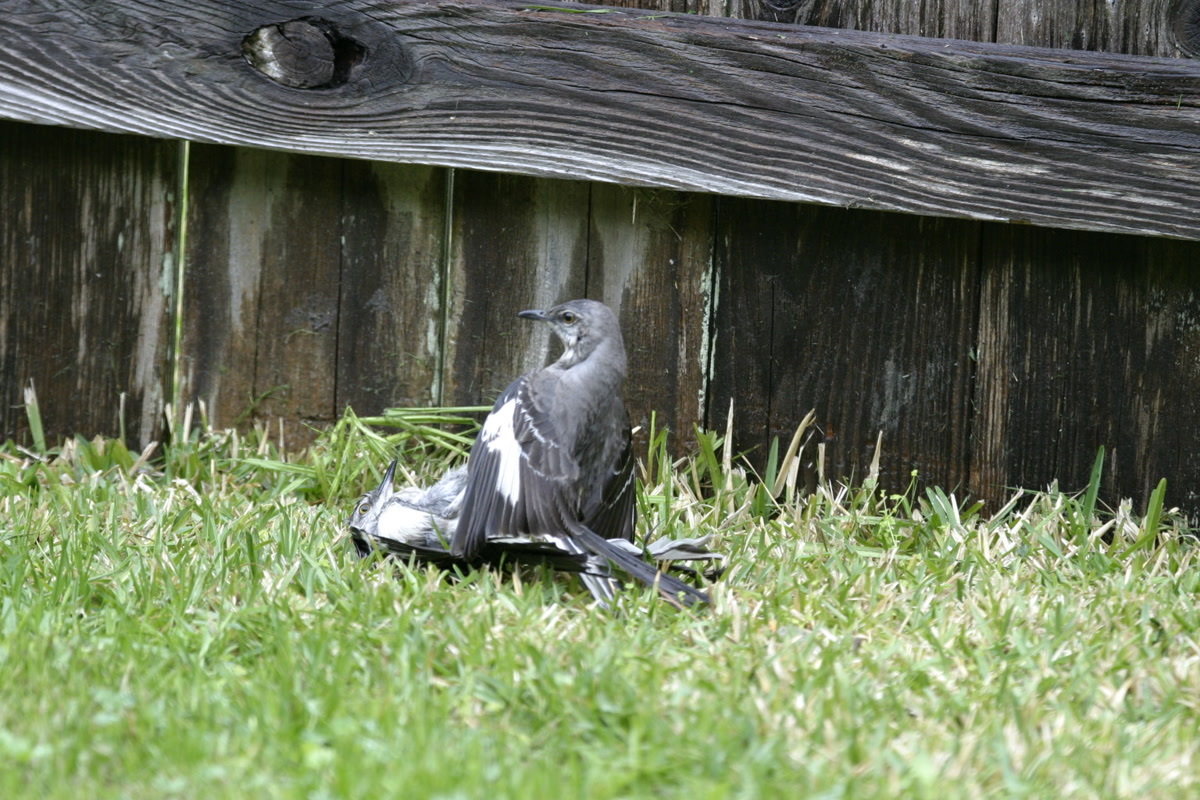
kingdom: Animalia
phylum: Chordata
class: Aves
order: Passeriformes
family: Mimidae
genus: Mimus
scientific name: Mimus polyglottos
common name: Northern mockingbird
